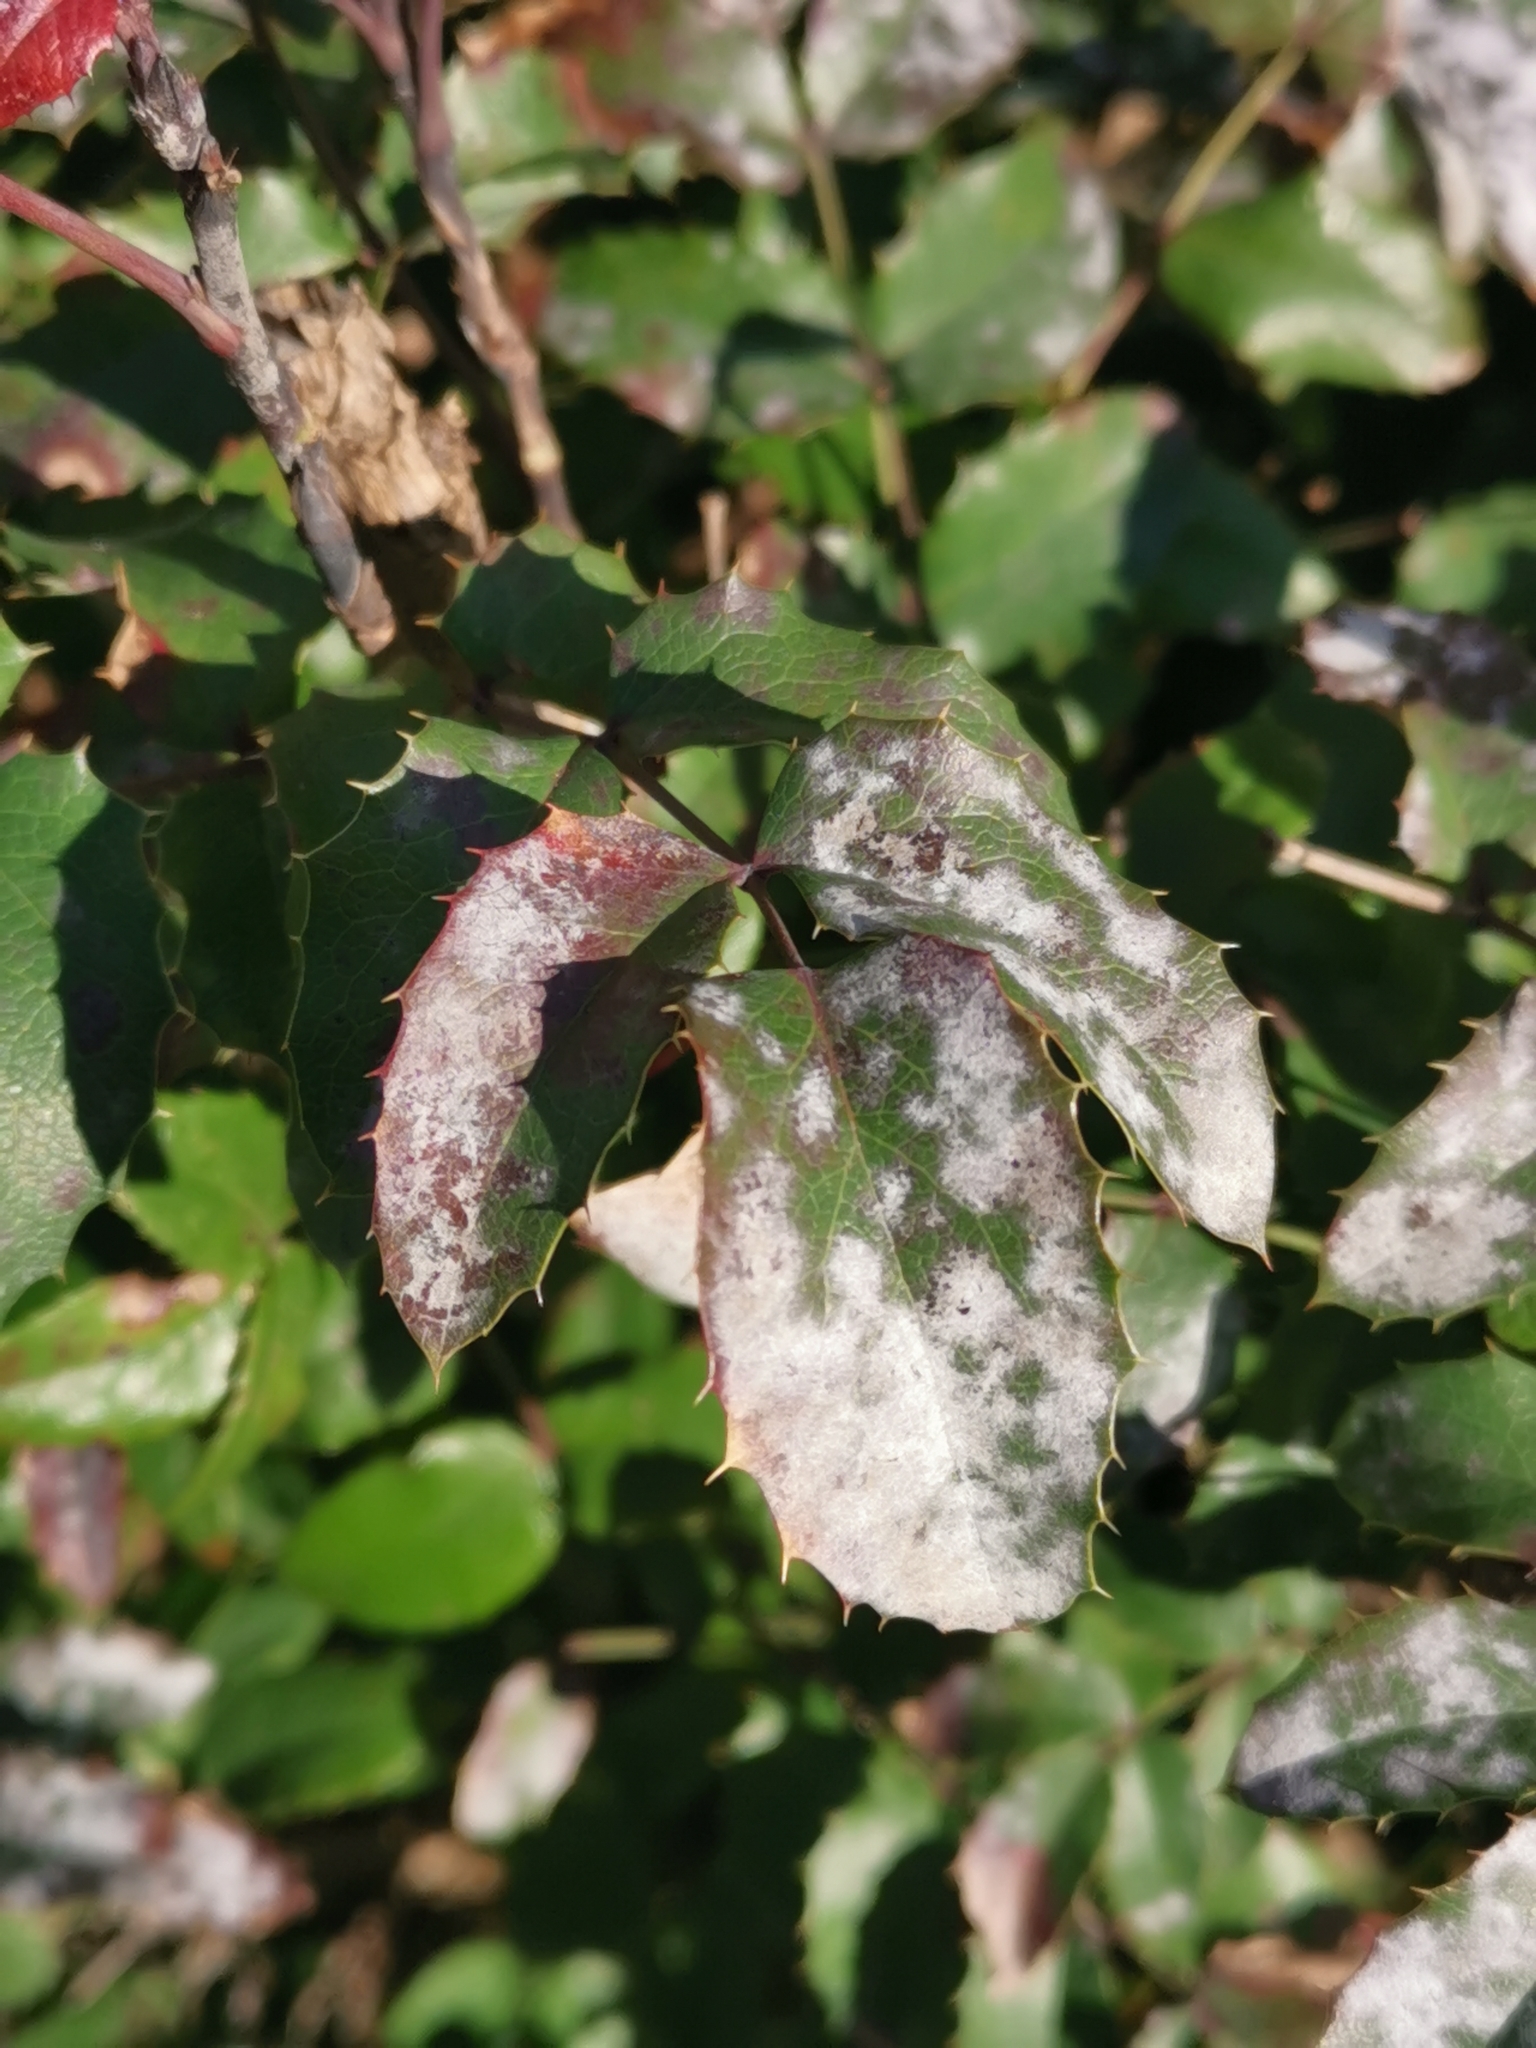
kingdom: Fungi
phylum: Ascomycota
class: Leotiomycetes
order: Helotiales
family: Erysiphaceae
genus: Erysiphe
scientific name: Erysiphe berberidis
